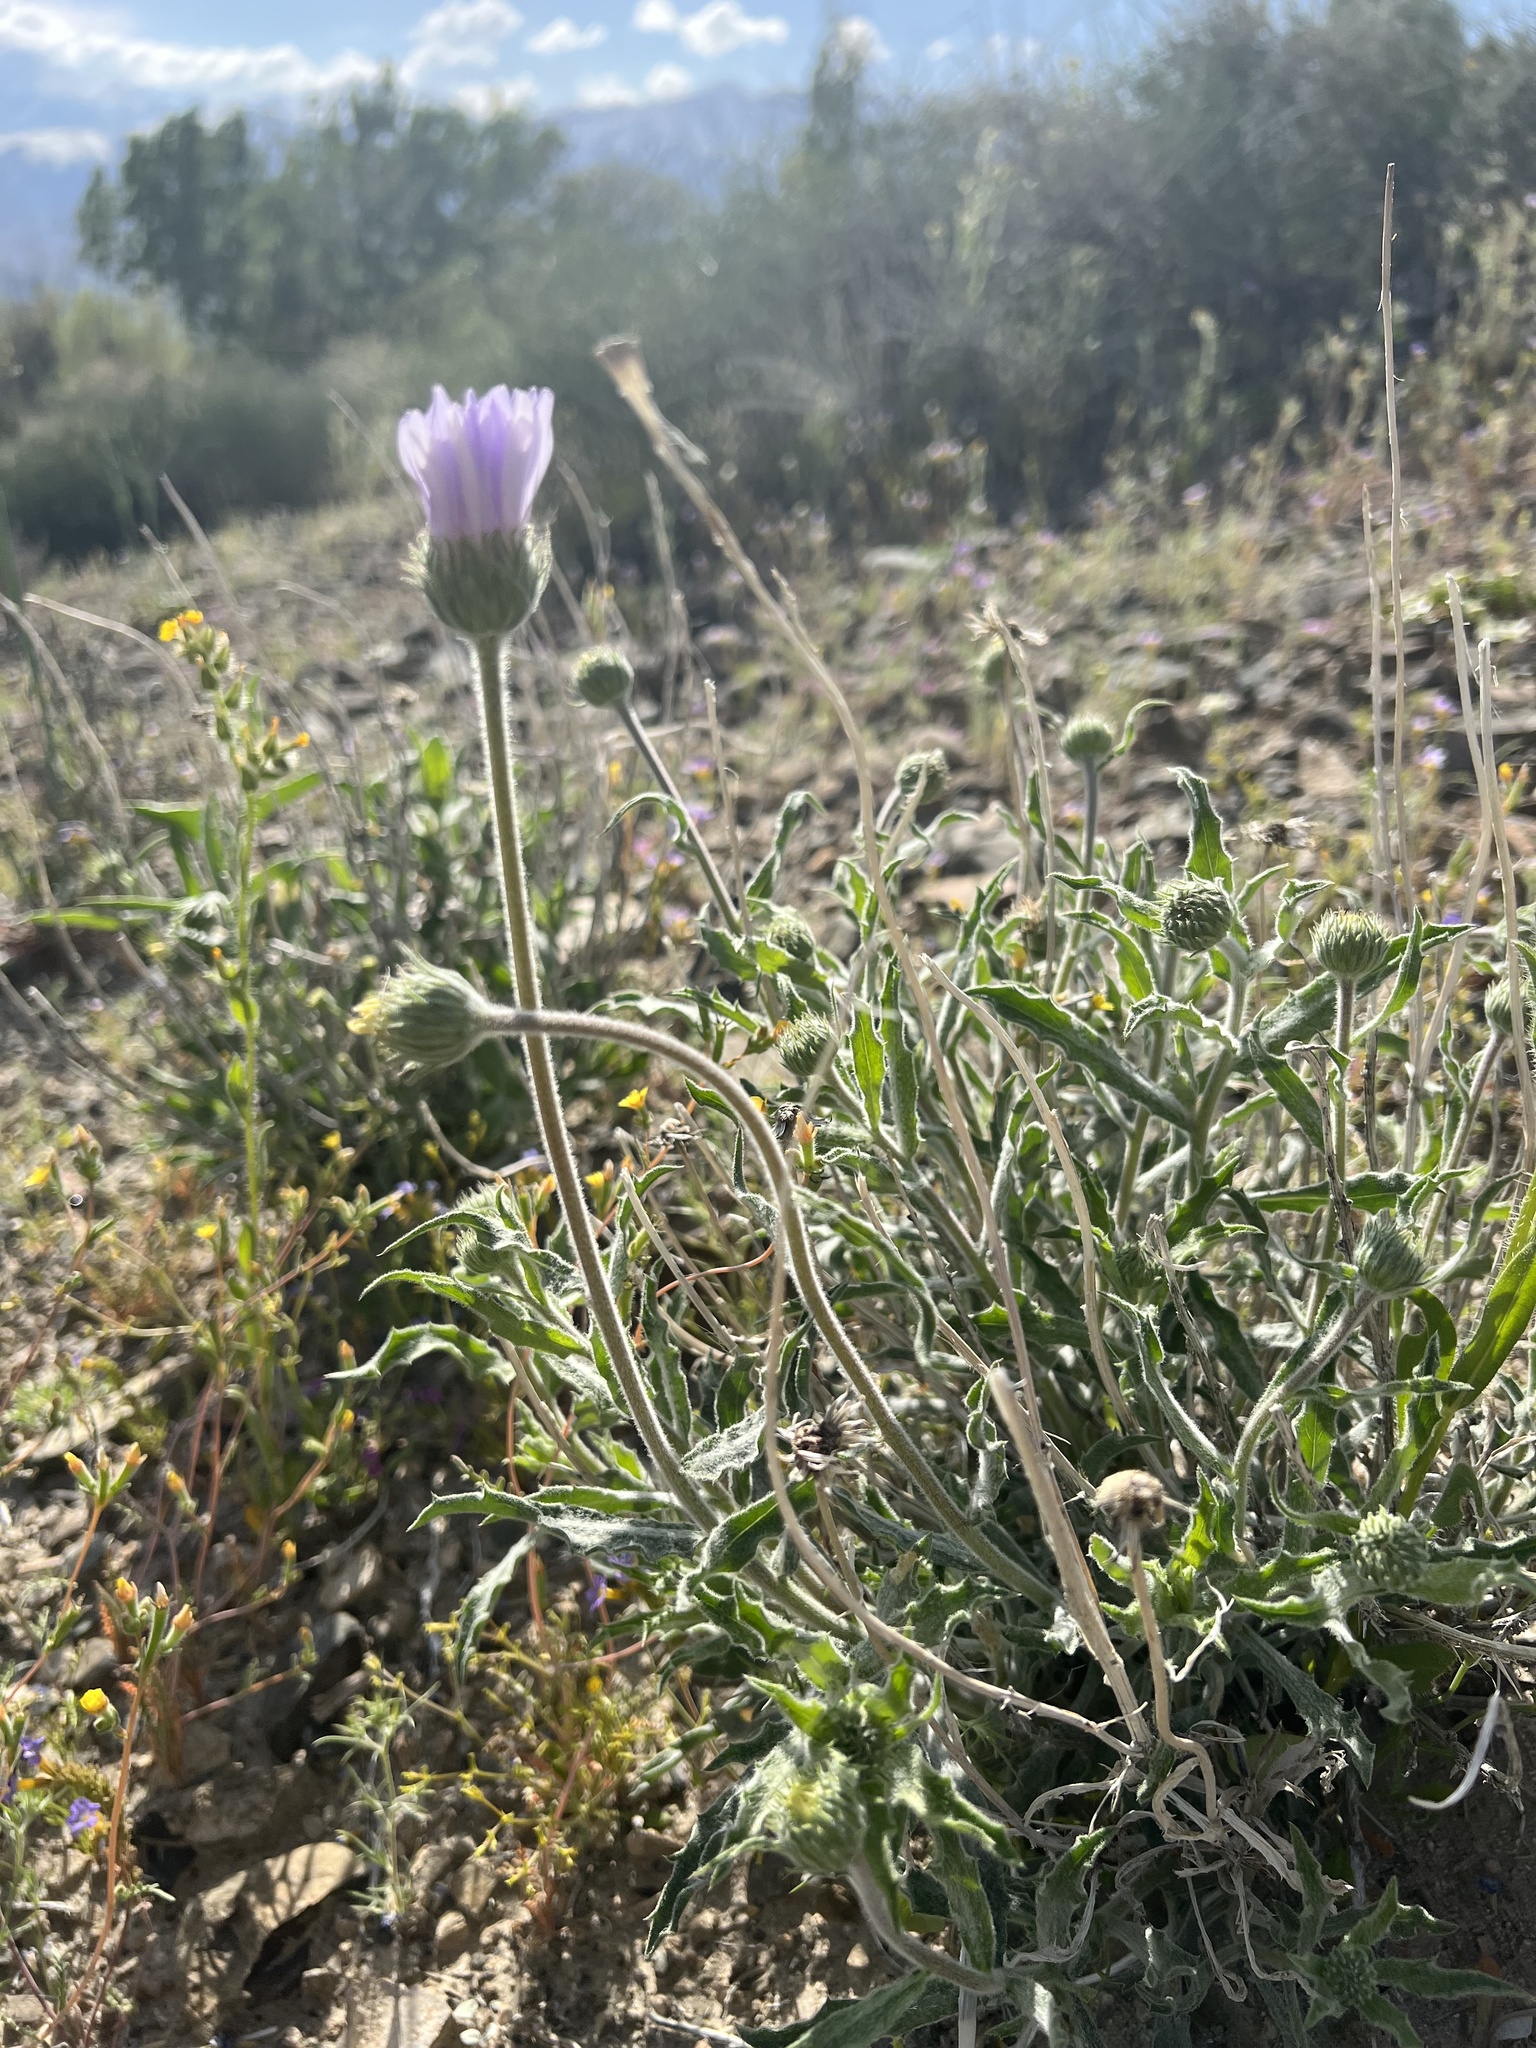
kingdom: Plantae
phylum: Tracheophyta
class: Magnoliopsida
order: Asterales
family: Asteraceae
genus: Xylorhiza
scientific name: Xylorhiza tortifolia
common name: Hurt-leaf woody-aster
